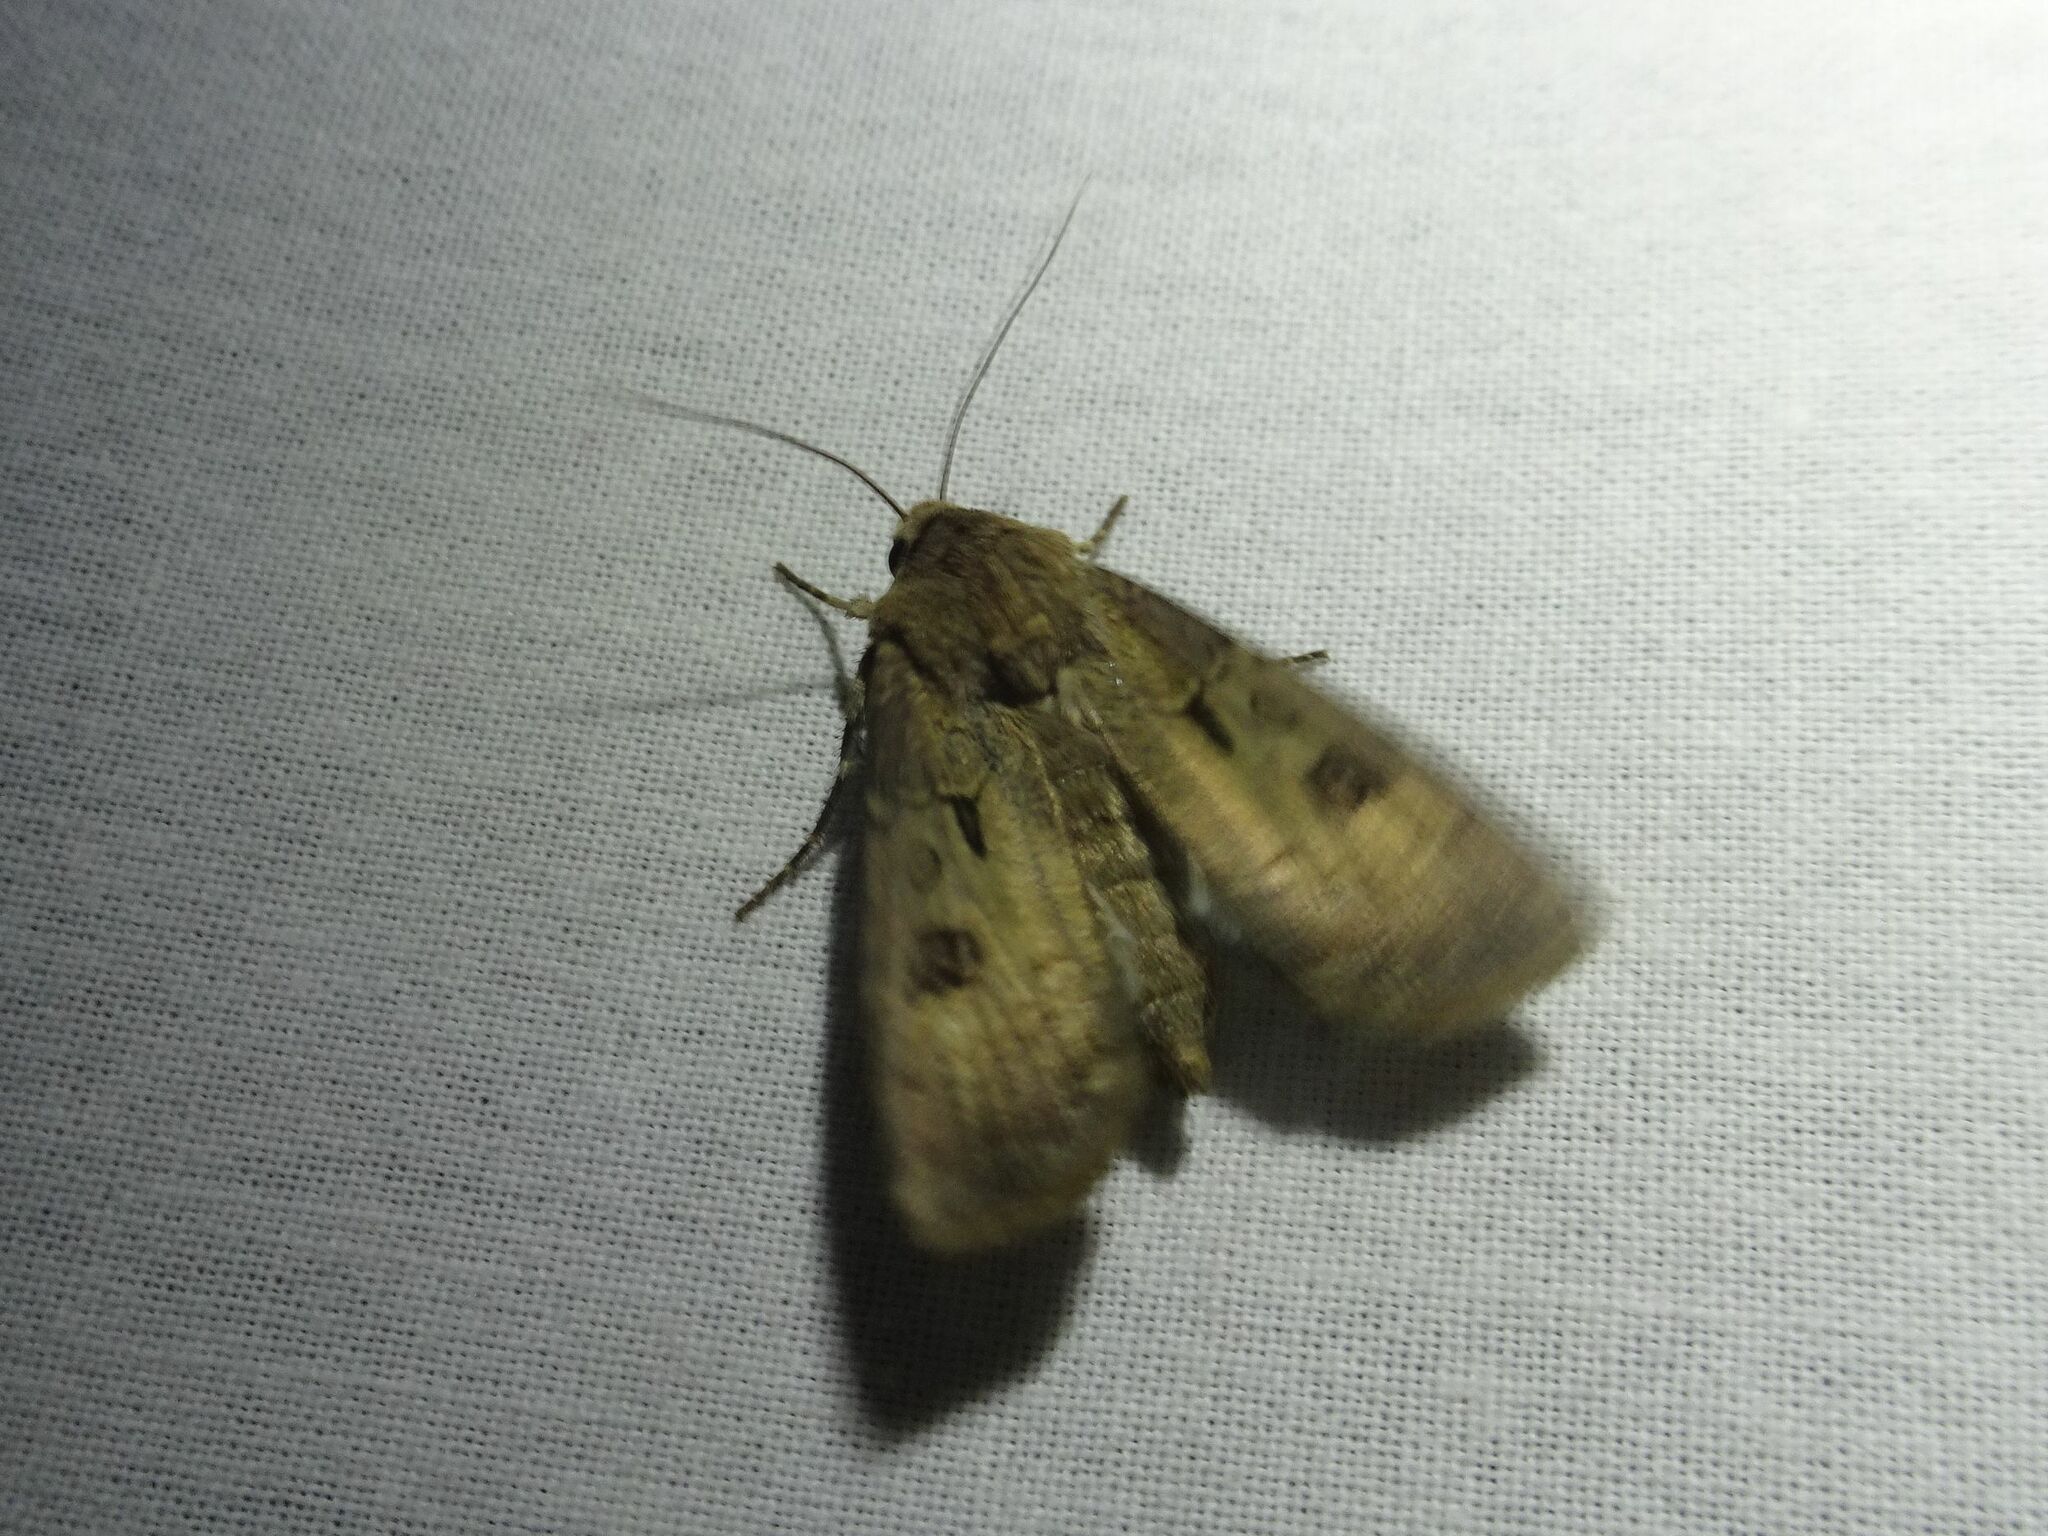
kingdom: Animalia
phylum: Arthropoda
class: Insecta
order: Lepidoptera
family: Noctuidae
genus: Agrotis
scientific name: Agrotis exclamationis
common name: Heart and dart
